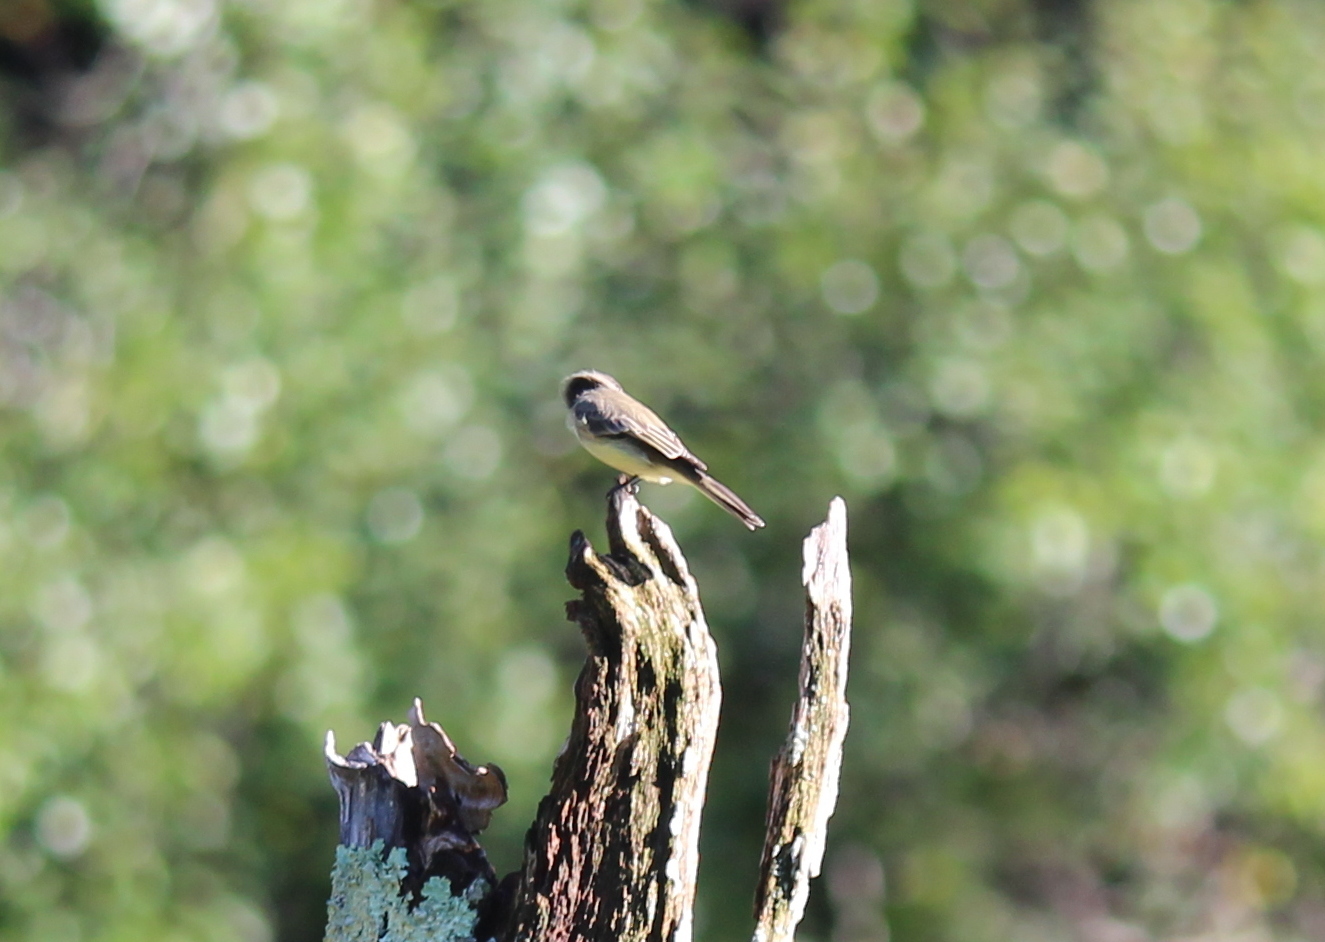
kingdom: Animalia
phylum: Chordata
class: Aves
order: Passeriformes
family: Tyrannidae
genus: Sayornis
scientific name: Sayornis phoebe
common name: Eastern phoebe
